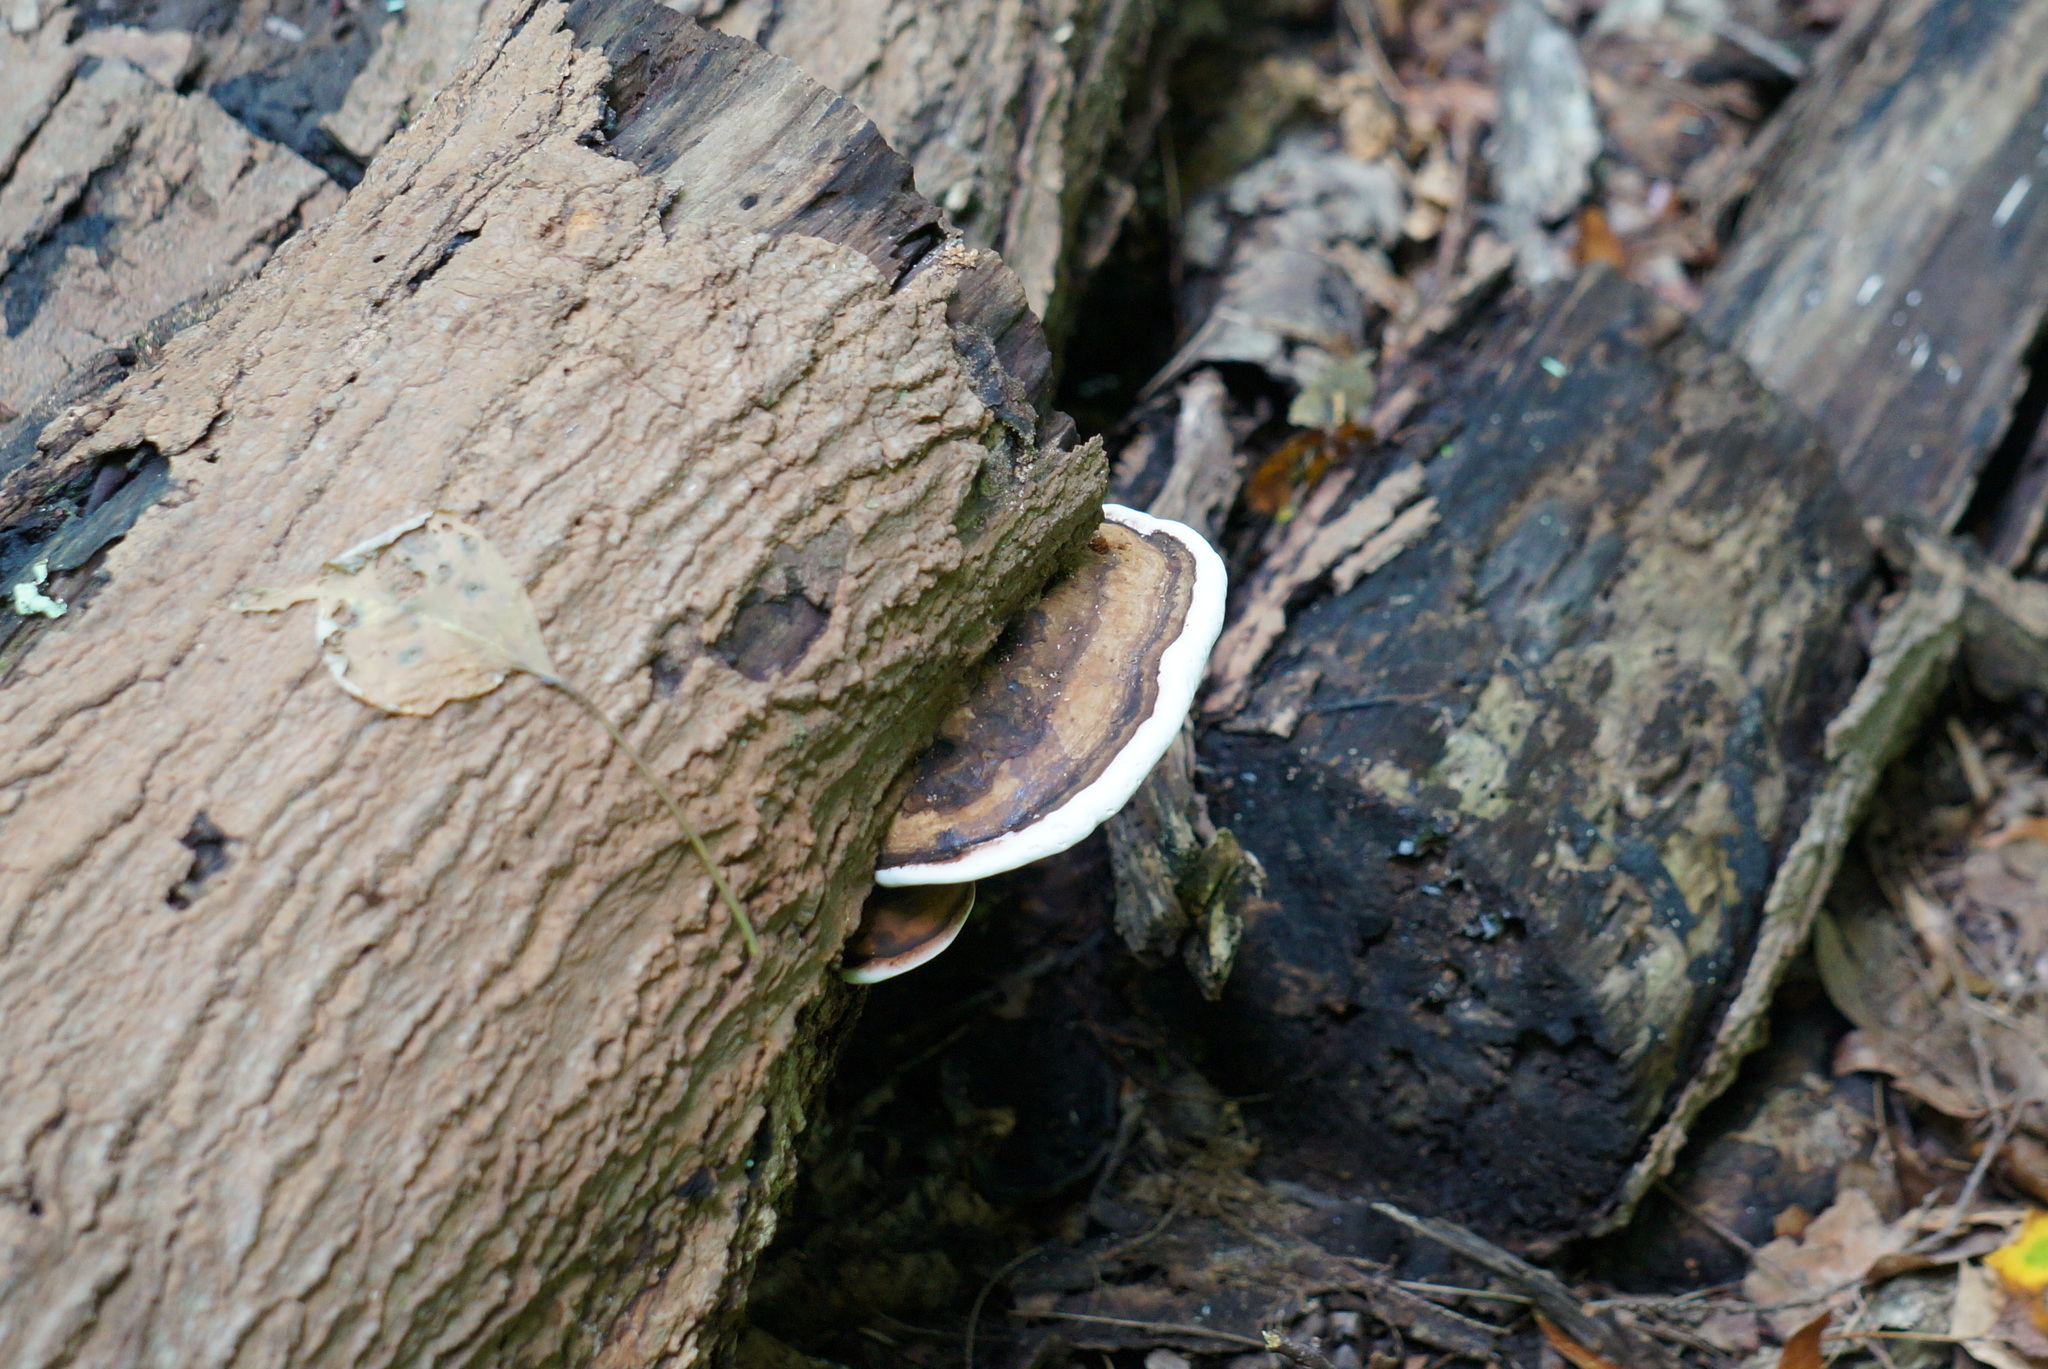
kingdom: Fungi
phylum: Basidiomycota
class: Agaricomycetes
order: Polyporales
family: Polyporaceae
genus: Ganoderma
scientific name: Ganoderma applanatum
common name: Artist's bracket
